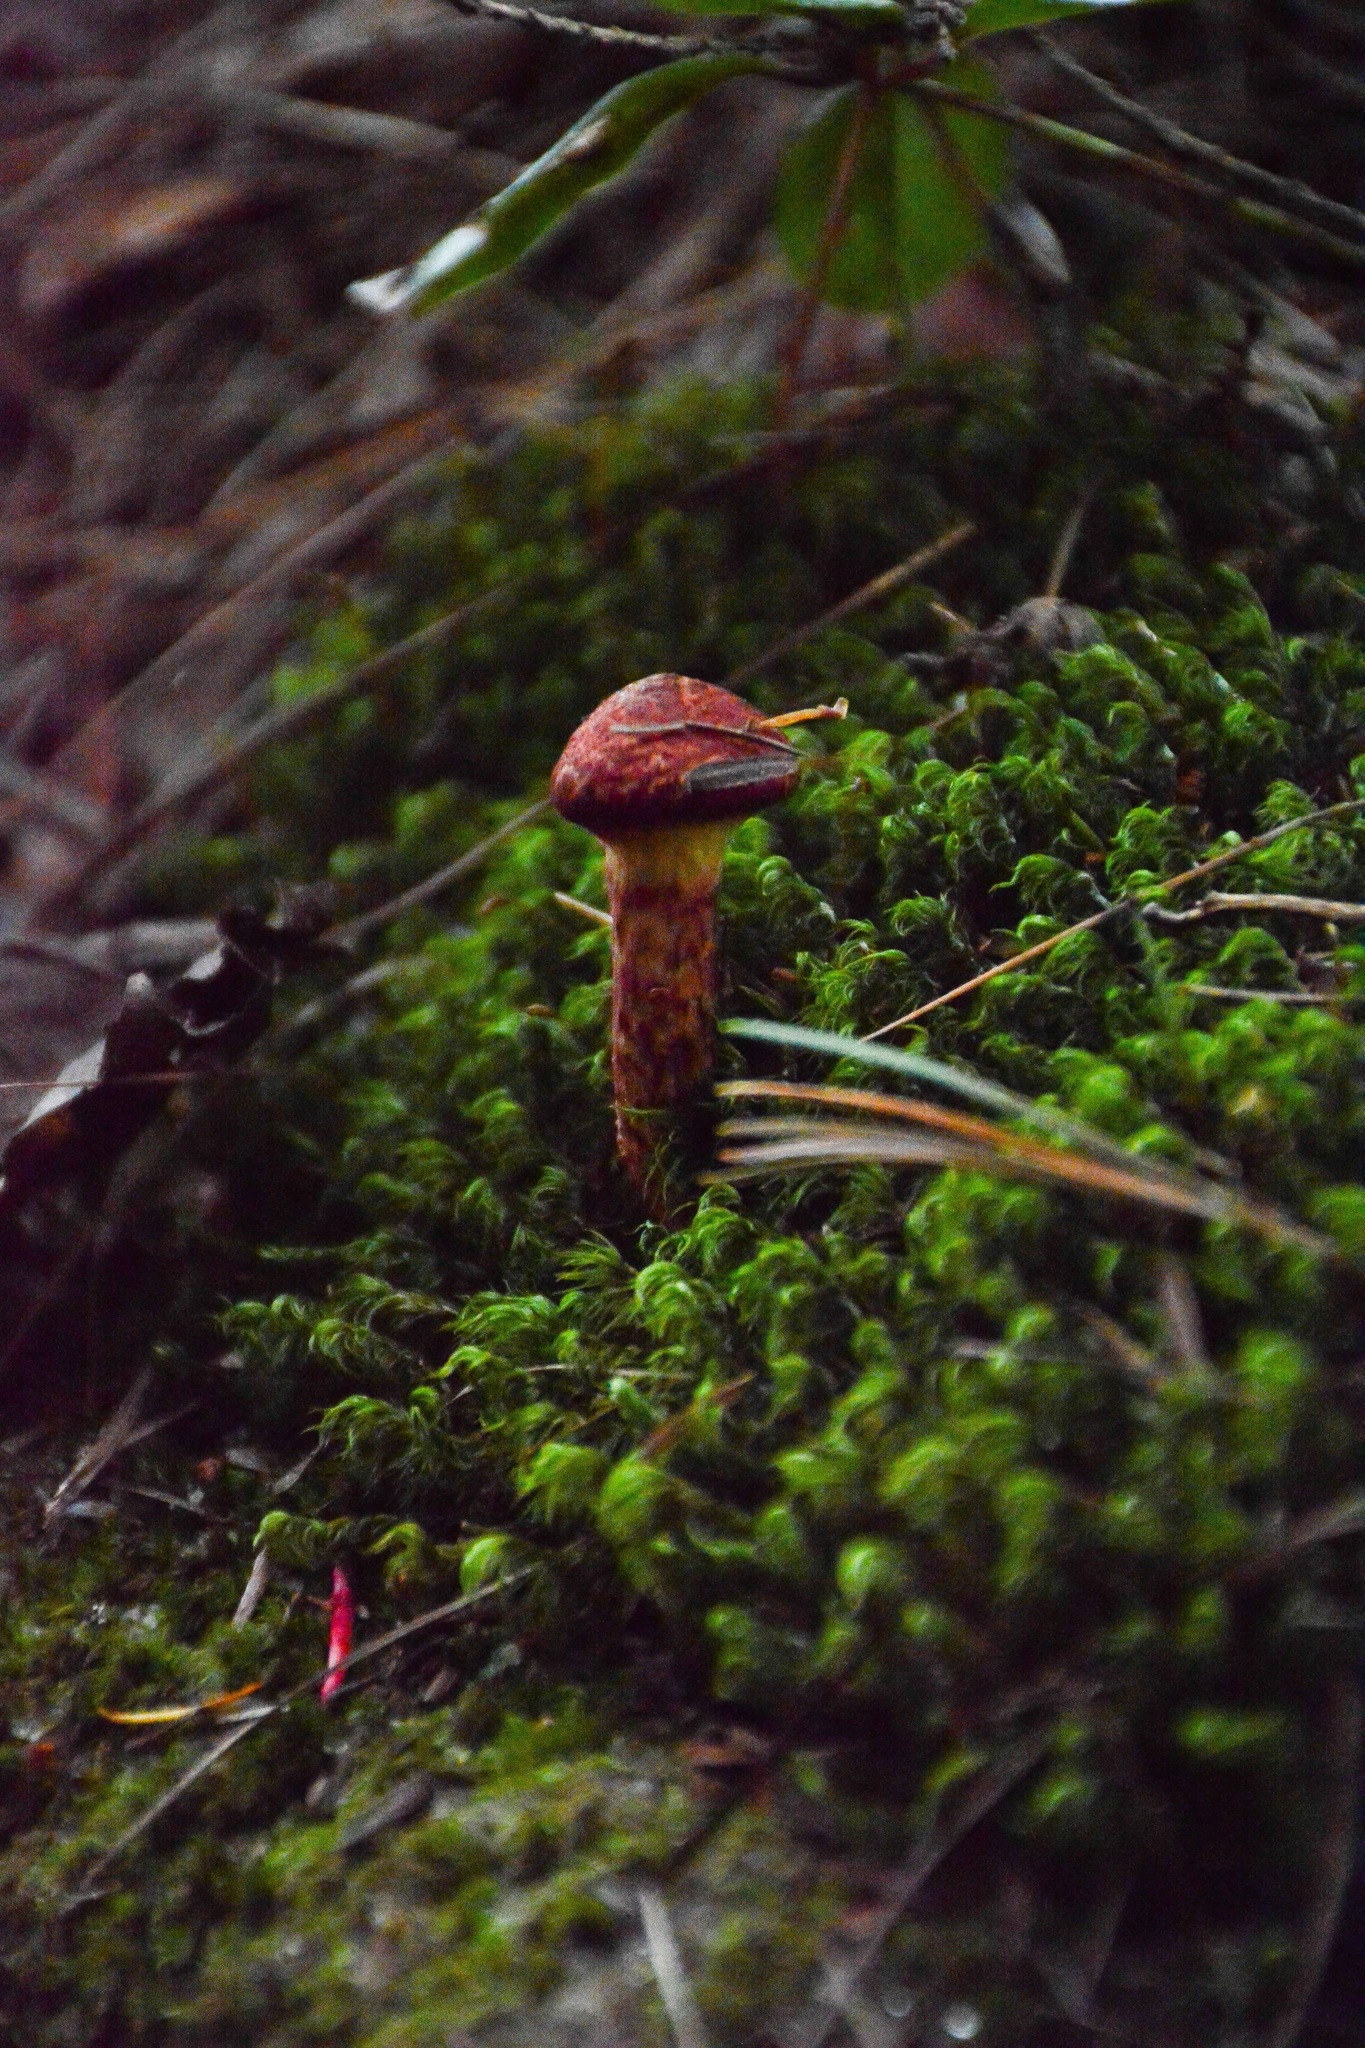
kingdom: Fungi
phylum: Basidiomycota
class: Agaricomycetes
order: Boletales
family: Suillaceae
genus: Suillus
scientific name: Suillus spraguei
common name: Painted suillus
